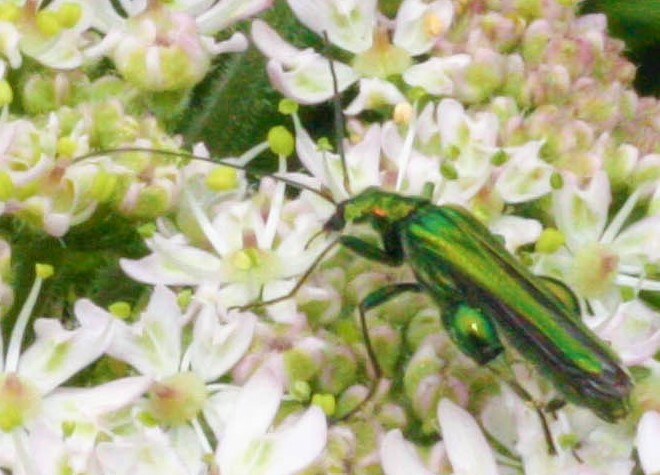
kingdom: Animalia
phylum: Arthropoda
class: Insecta
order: Coleoptera
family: Oedemeridae
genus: Oedemera
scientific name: Oedemera nobilis
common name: Swollen-thighed beetle
